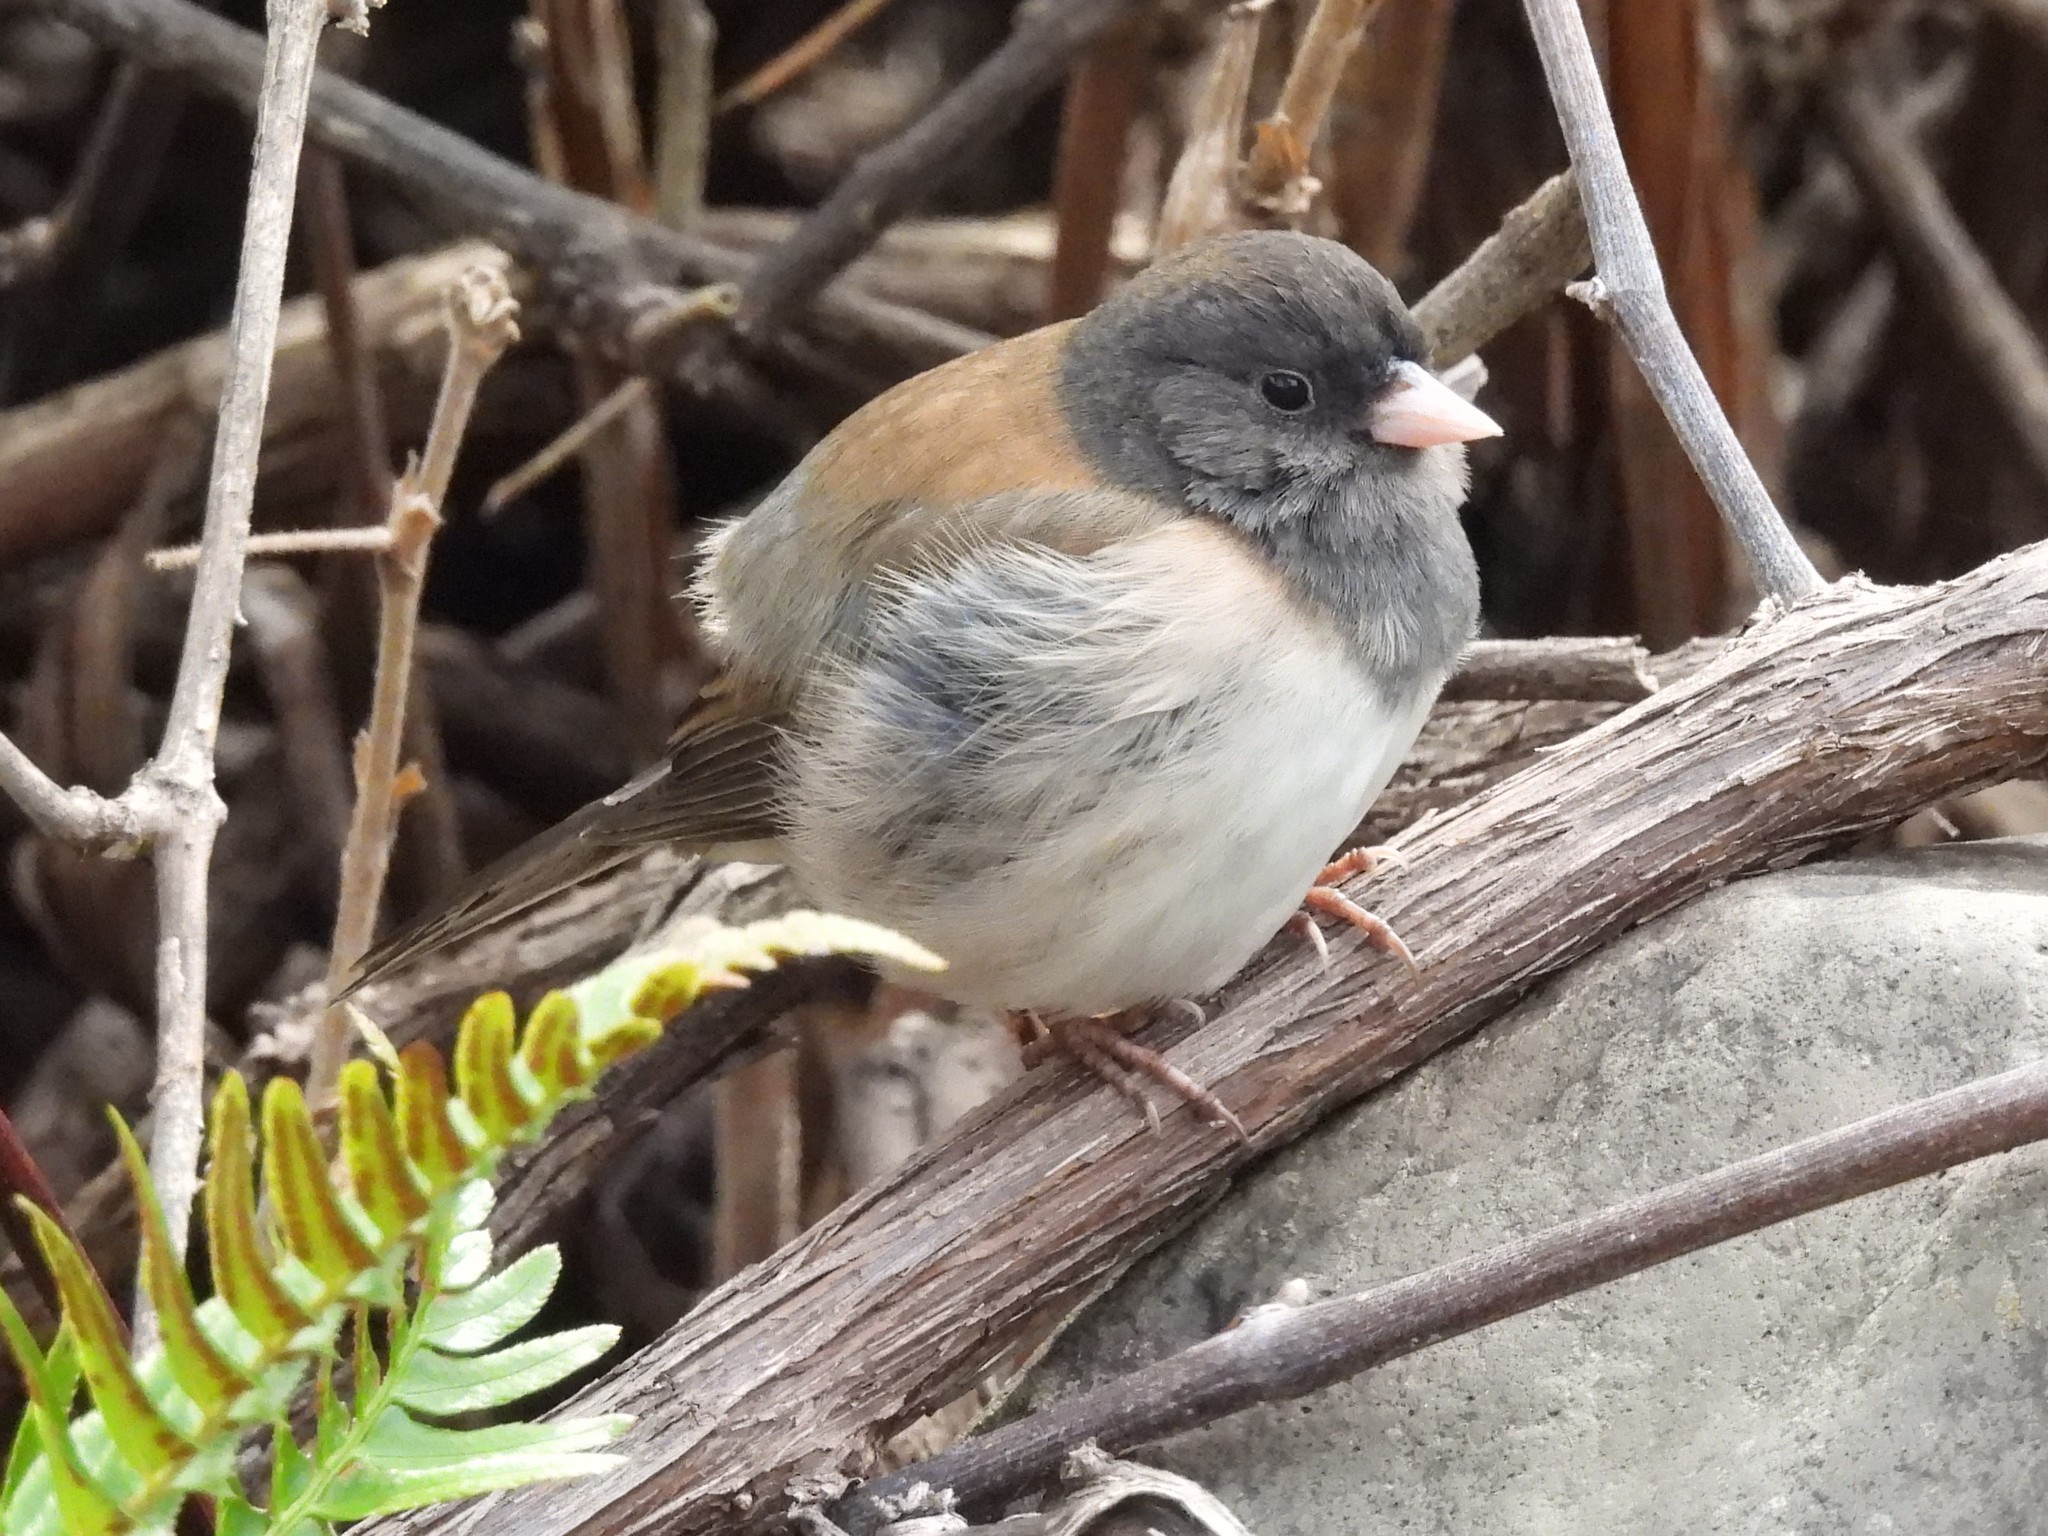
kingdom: Animalia
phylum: Chordata
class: Aves
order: Passeriformes
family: Passerellidae
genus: Junco
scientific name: Junco hyemalis
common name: Dark-eyed junco
